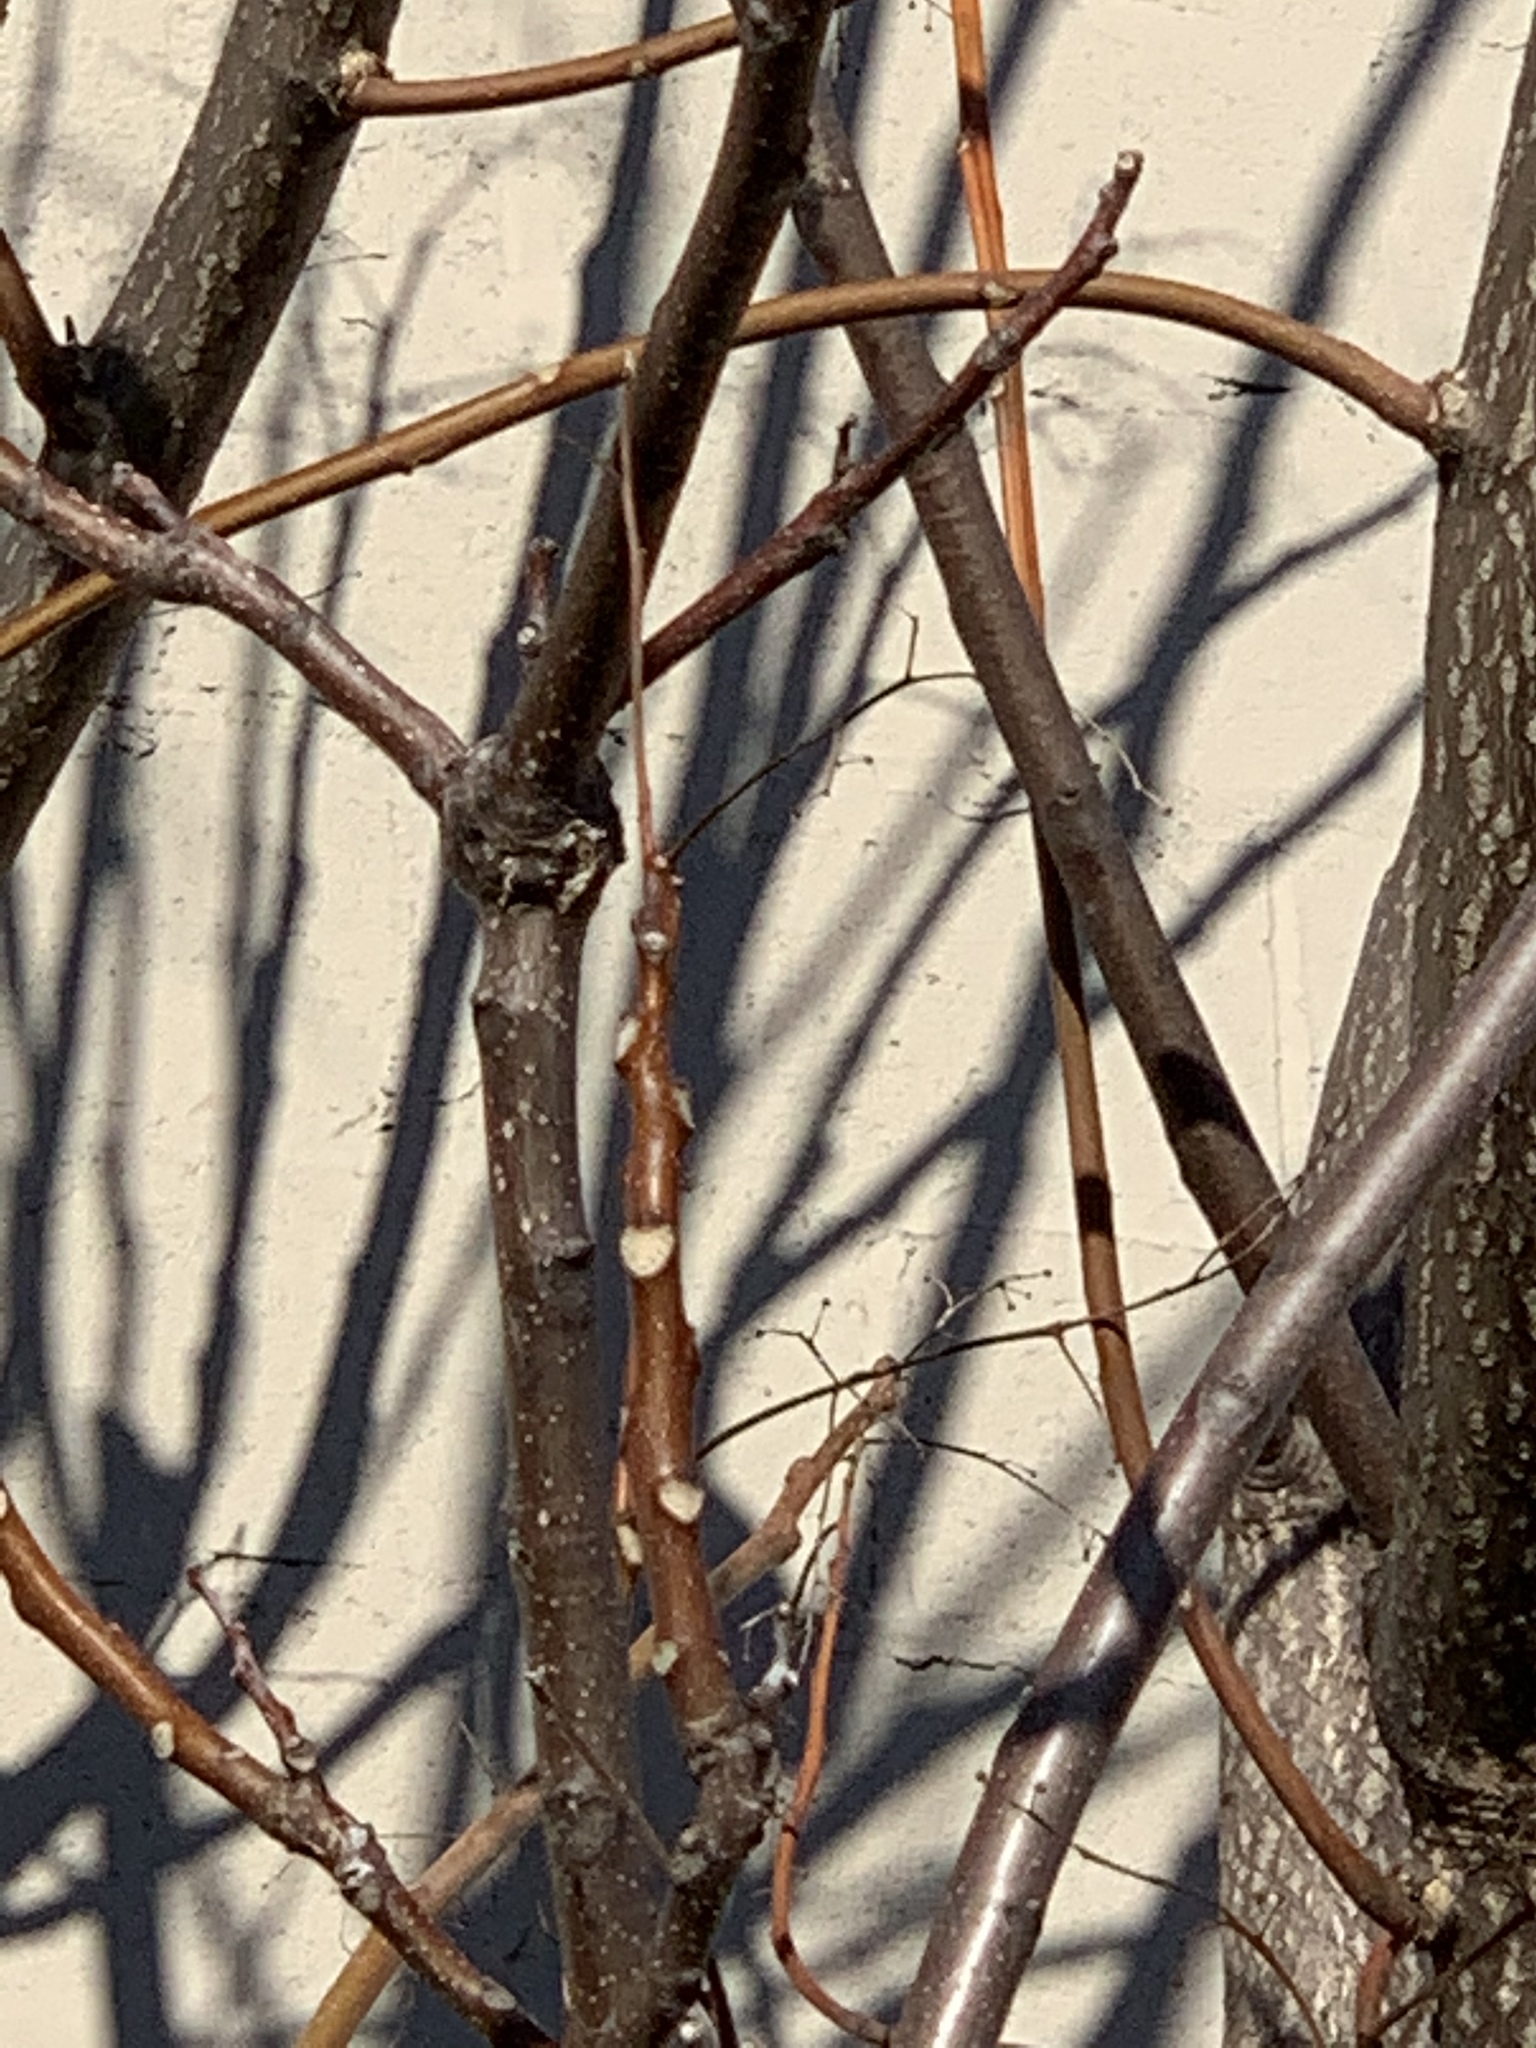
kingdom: Plantae
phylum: Tracheophyta
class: Magnoliopsida
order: Sapindales
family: Simaroubaceae
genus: Ailanthus
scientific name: Ailanthus altissima
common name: Tree-of-heaven
